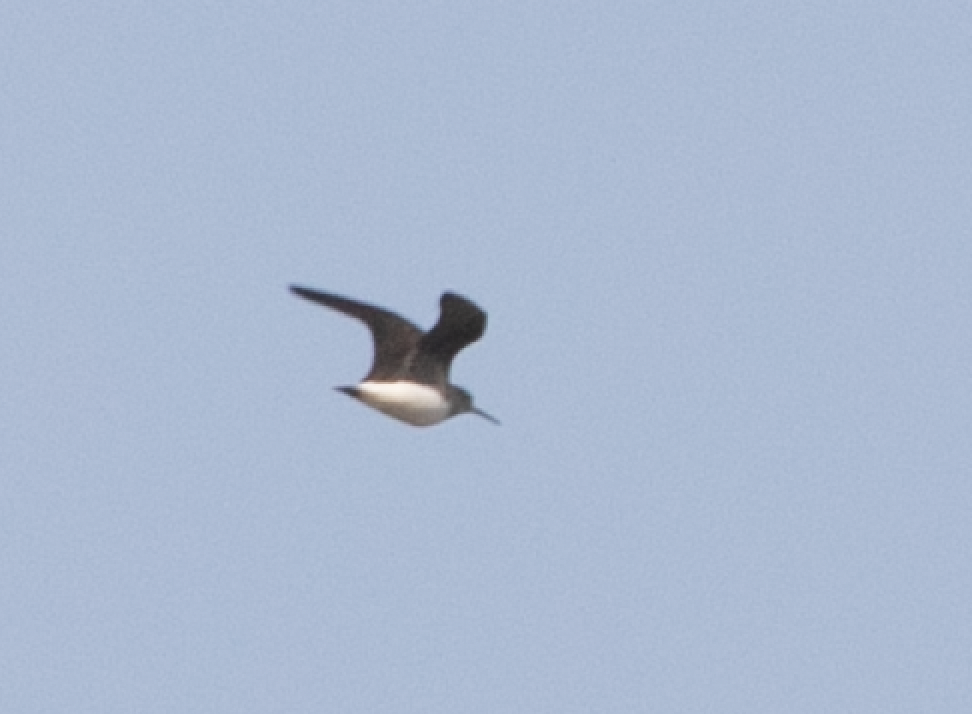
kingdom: Animalia
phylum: Chordata
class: Aves
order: Charadriiformes
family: Scolopacidae
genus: Tringa
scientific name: Tringa ochropus
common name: Green sandpiper
